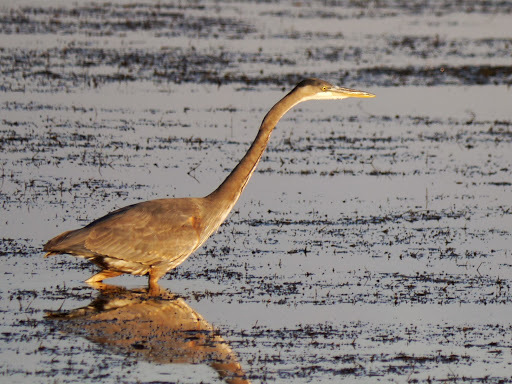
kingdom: Animalia
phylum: Chordata
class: Aves
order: Pelecaniformes
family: Ardeidae
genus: Ardea
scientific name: Ardea herodias
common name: Great blue heron
